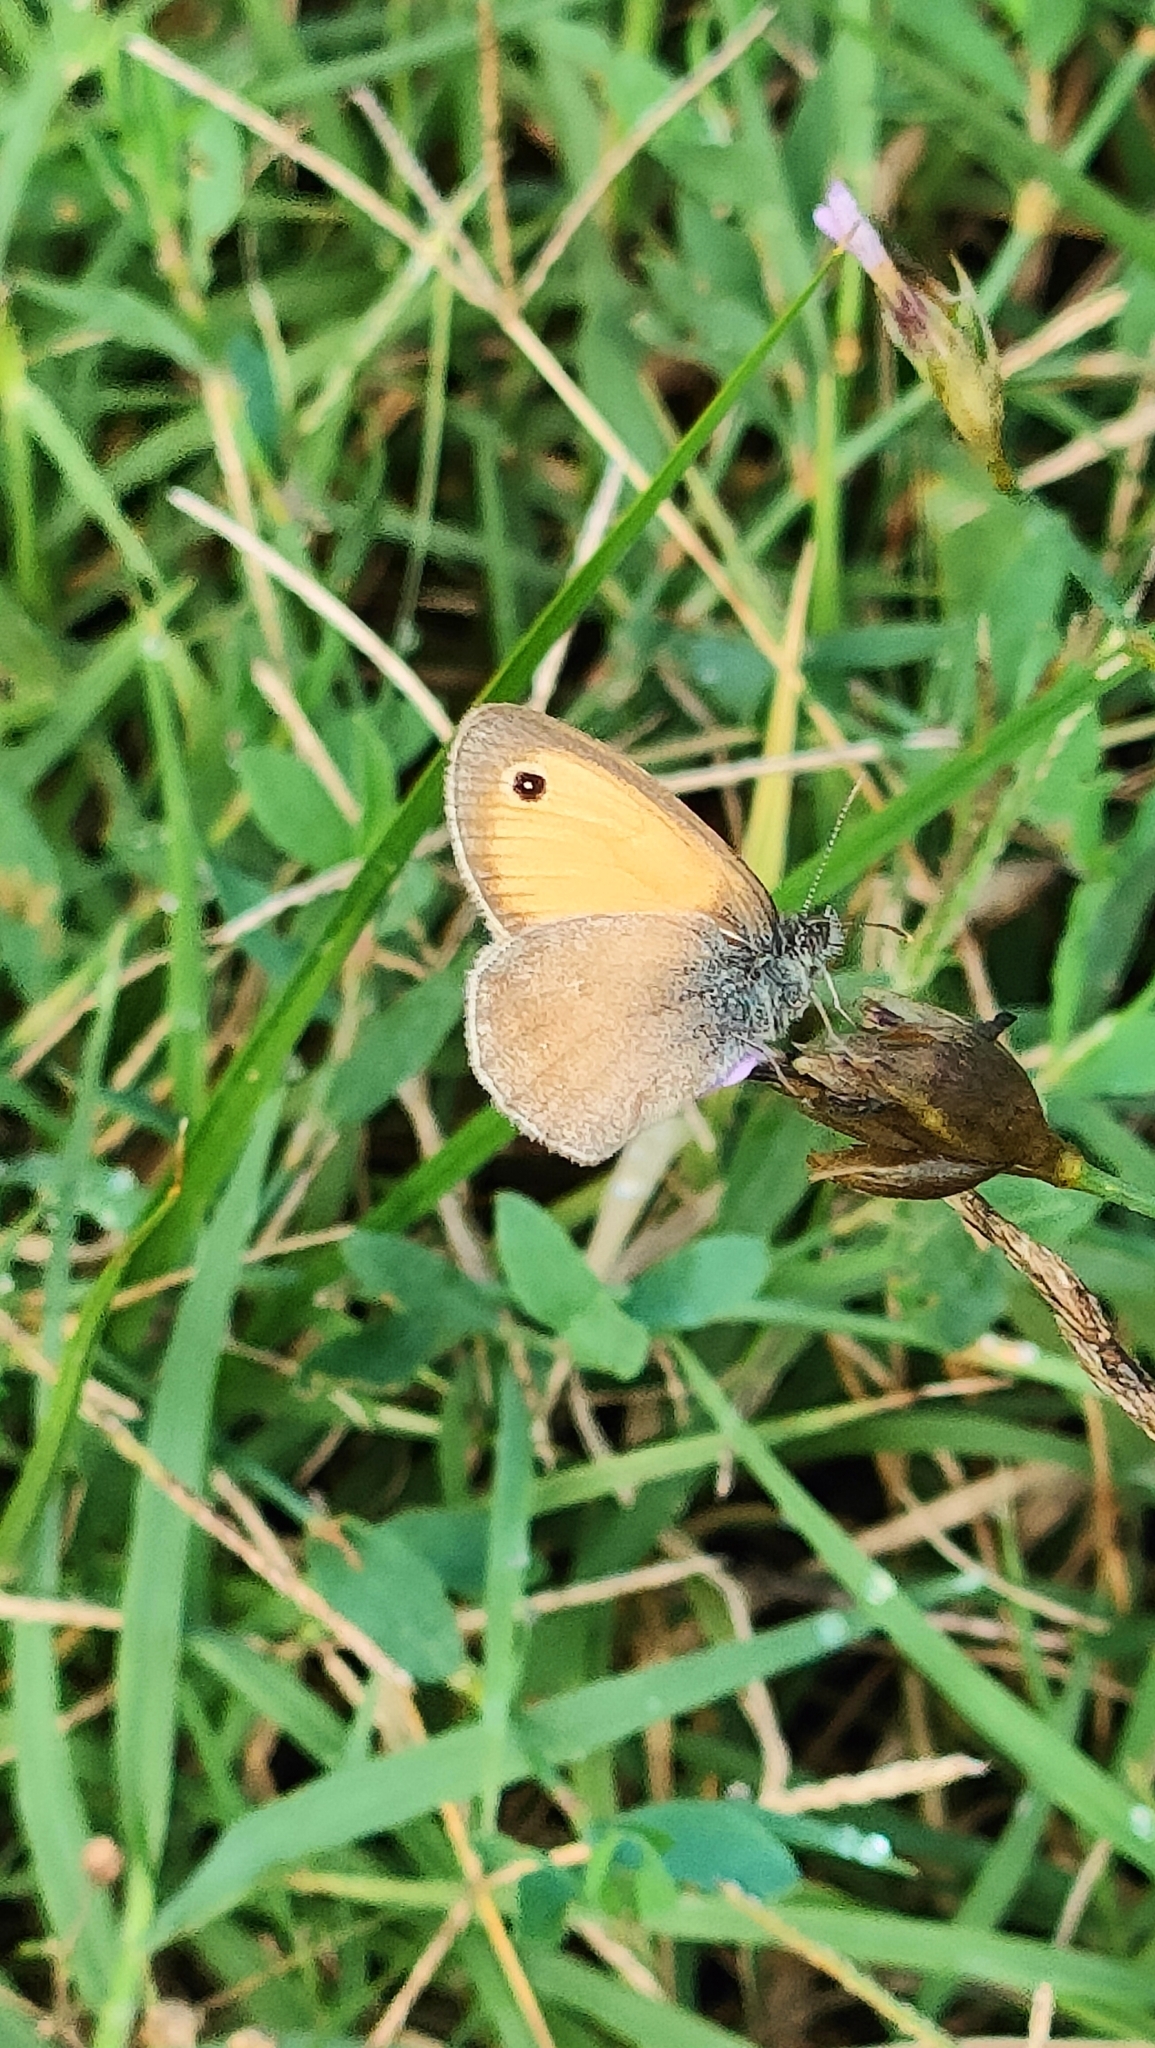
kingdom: Animalia
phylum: Arthropoda
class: Insecta
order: Lepidoptera
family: Nymphalidae
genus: Coenonympha
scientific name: Coenonympha pamphilus
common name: Small heath
